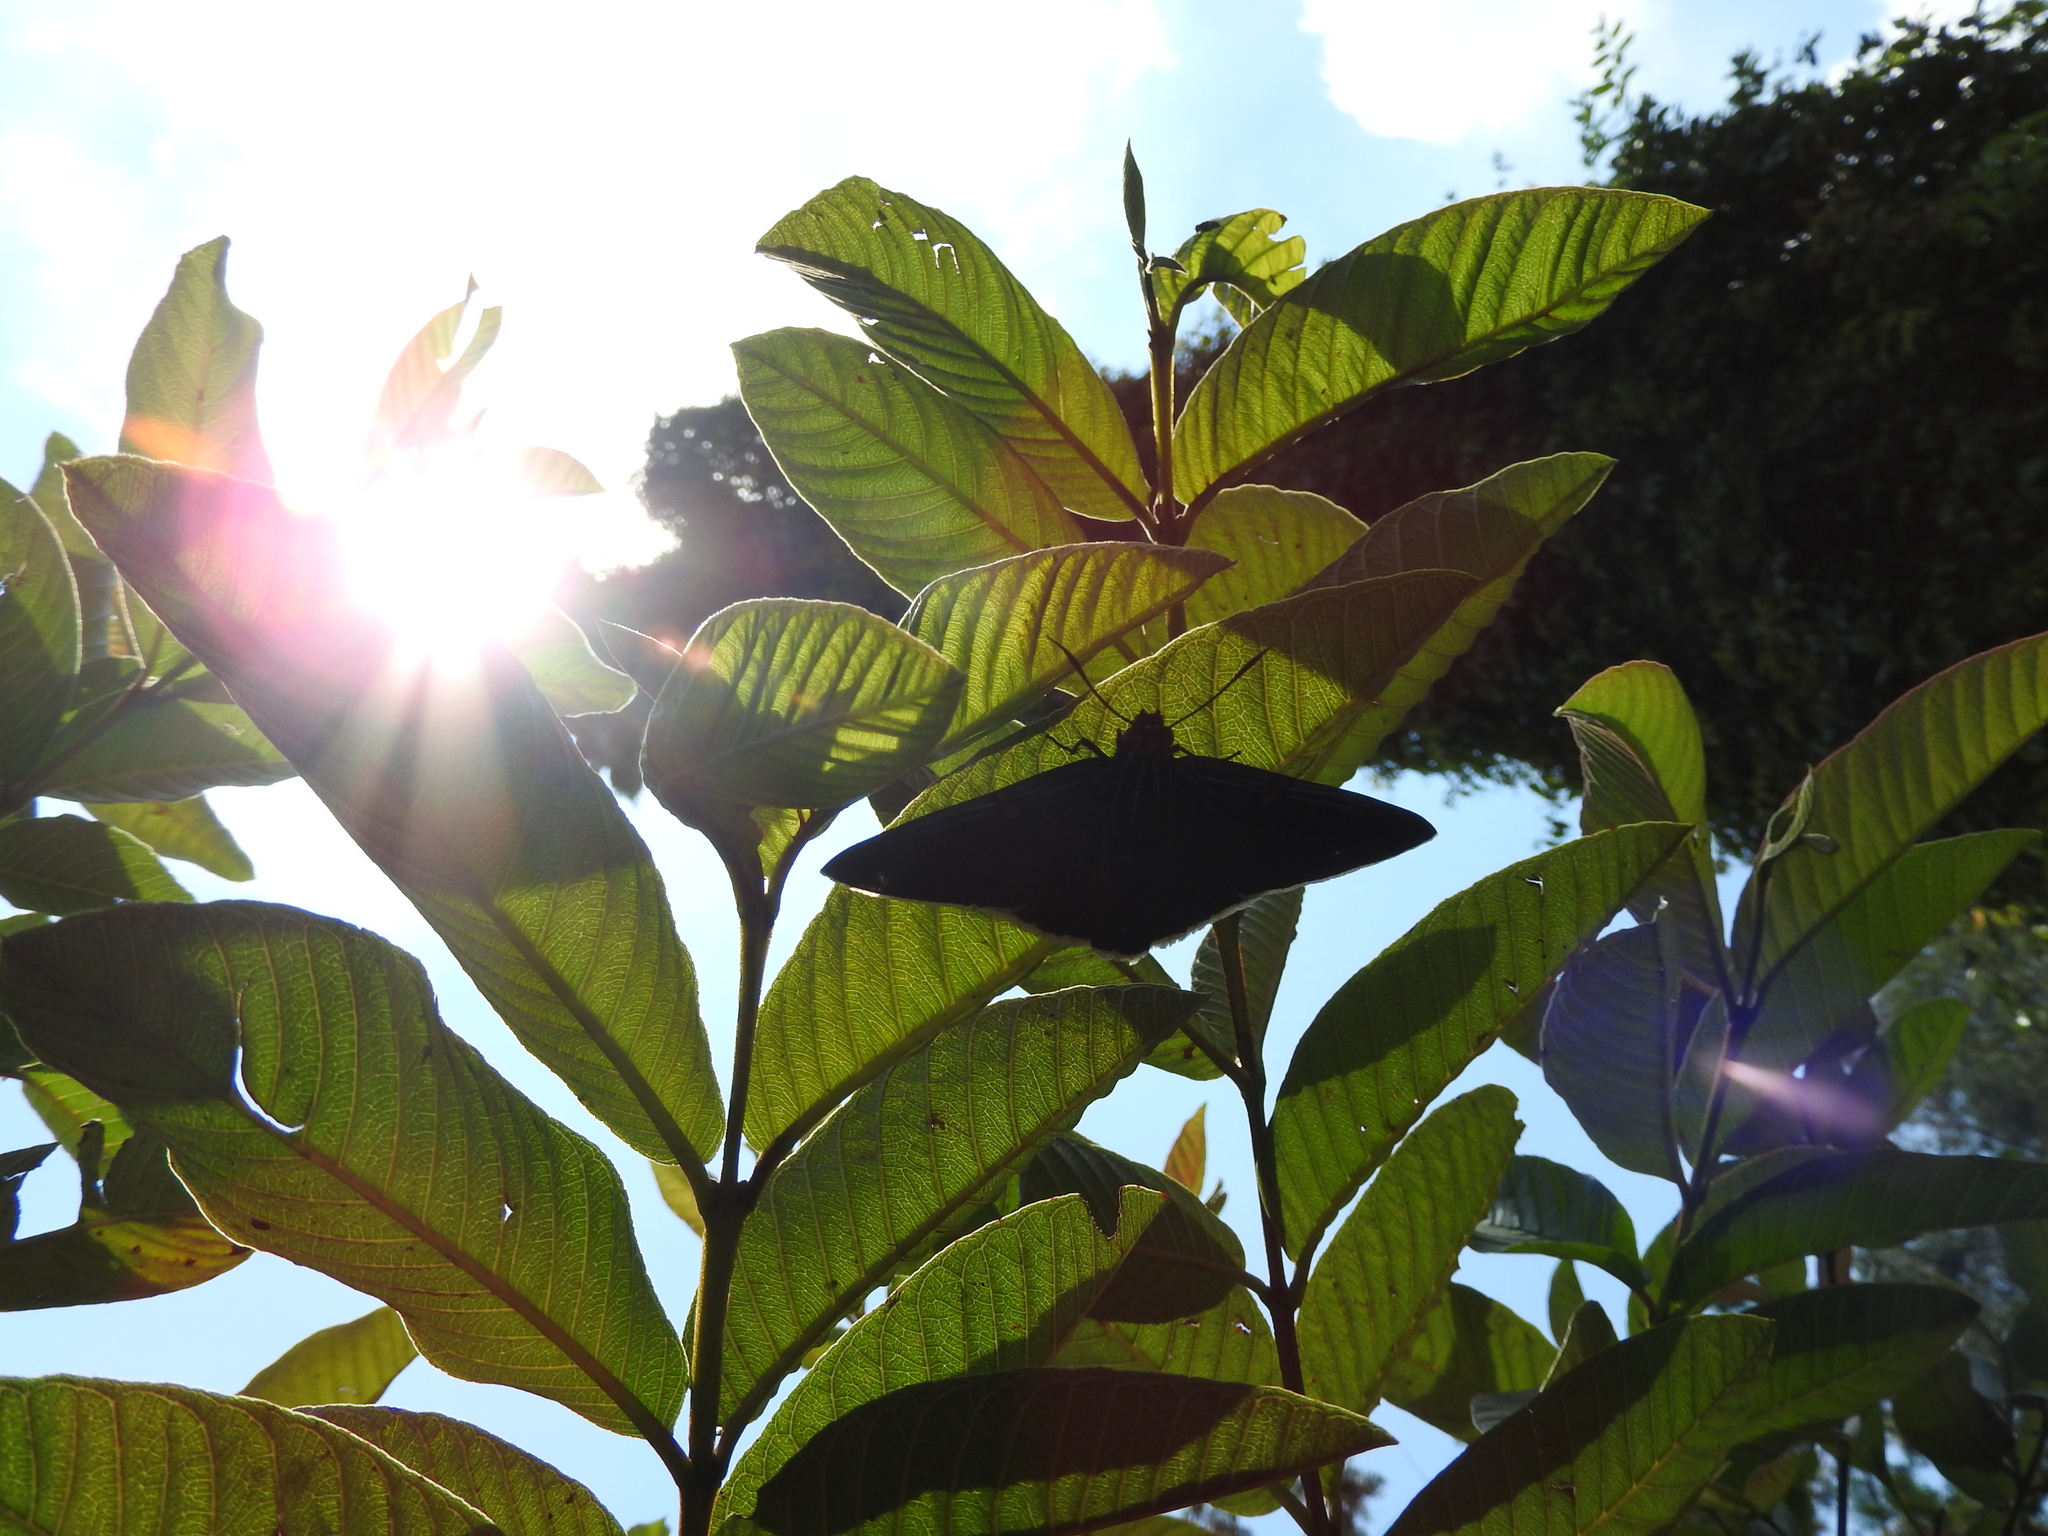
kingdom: Animalia
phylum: Arthropoda
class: Insecta
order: Lepidoptera
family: Hesperiidae
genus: Phocides
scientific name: Phocides lilea
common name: Guava skipper
